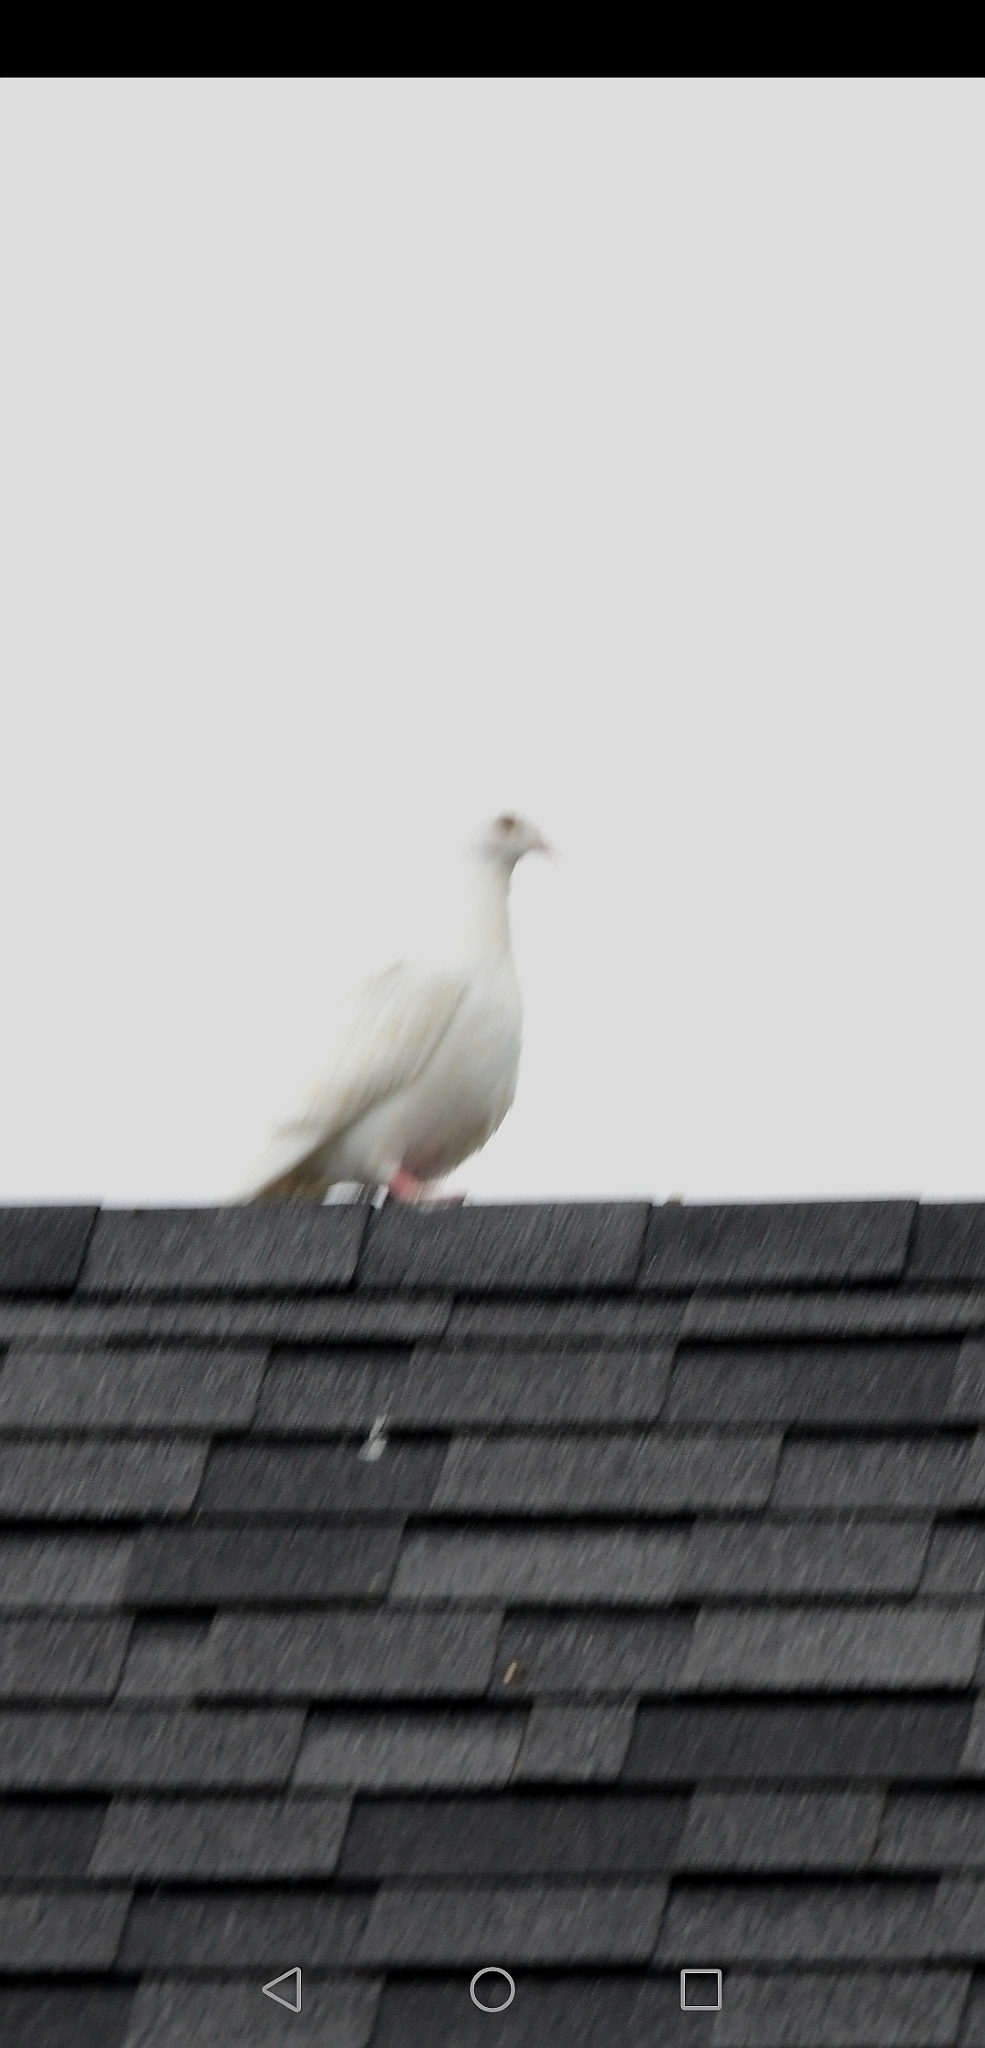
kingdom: Animalia
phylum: Chordata
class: Aves
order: Columbiformes
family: Columbidae
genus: Columba
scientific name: Columba livia
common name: Rock pigeon
